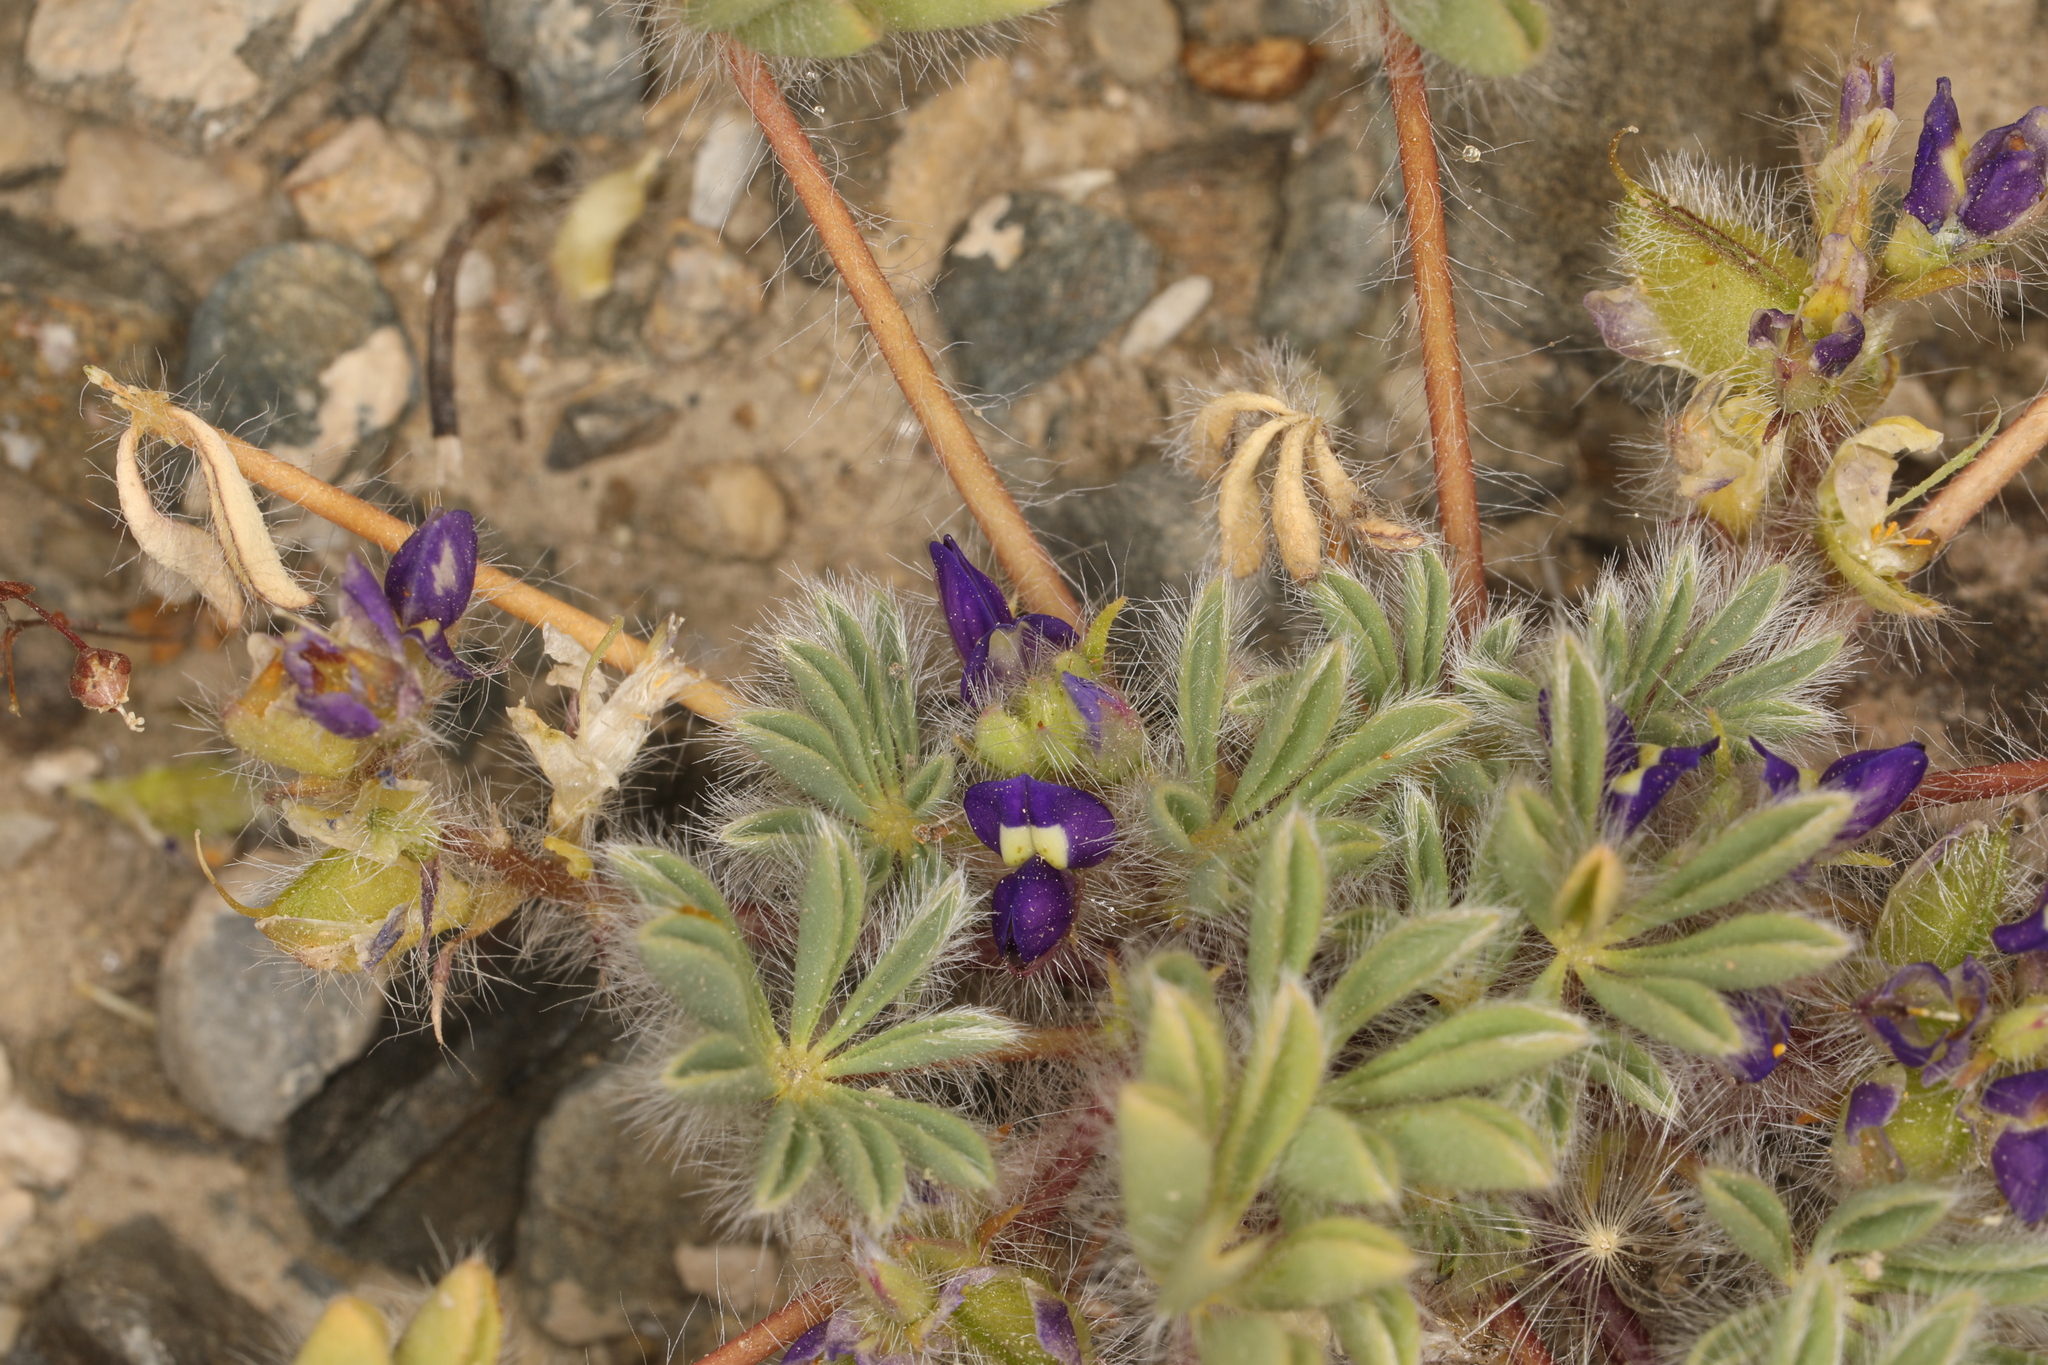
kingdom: Plantae
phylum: Tracheophyta
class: Magnoliopsida
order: Fabales
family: Fabaceae
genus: Lupinus
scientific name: Lupinus flavoculatus
